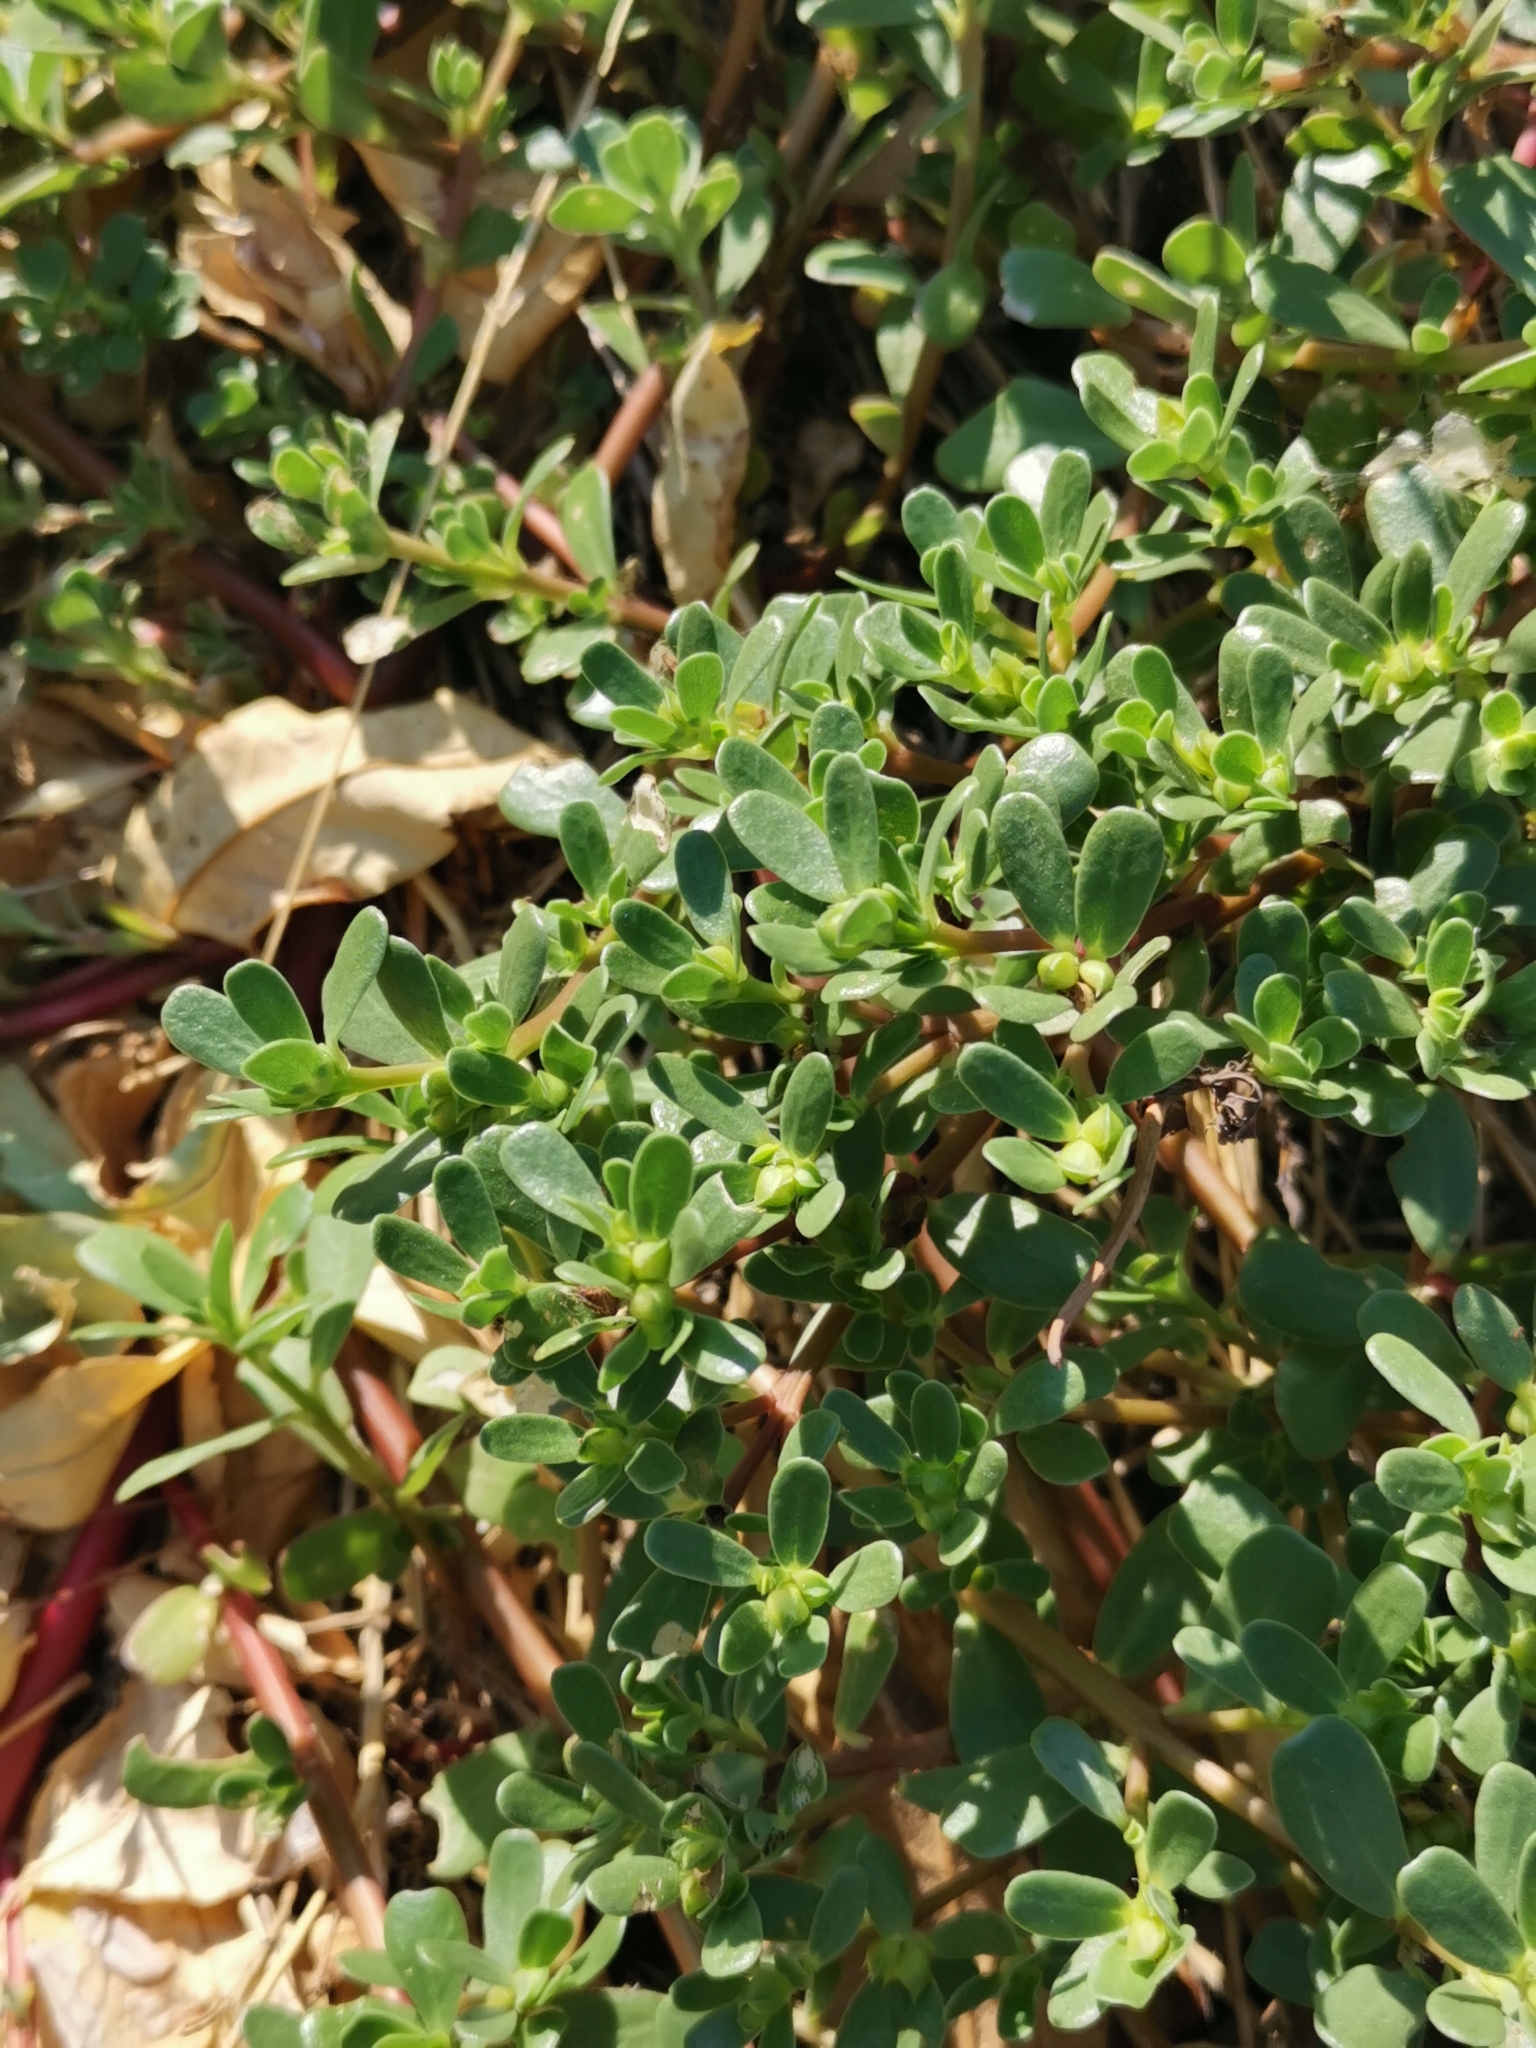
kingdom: Plantae
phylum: Tracheophyta
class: Magnoliopsida
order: Caryophyllales
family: Portulacaceae
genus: Portulaca
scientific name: Portulaca oleracea
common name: Common purslane
